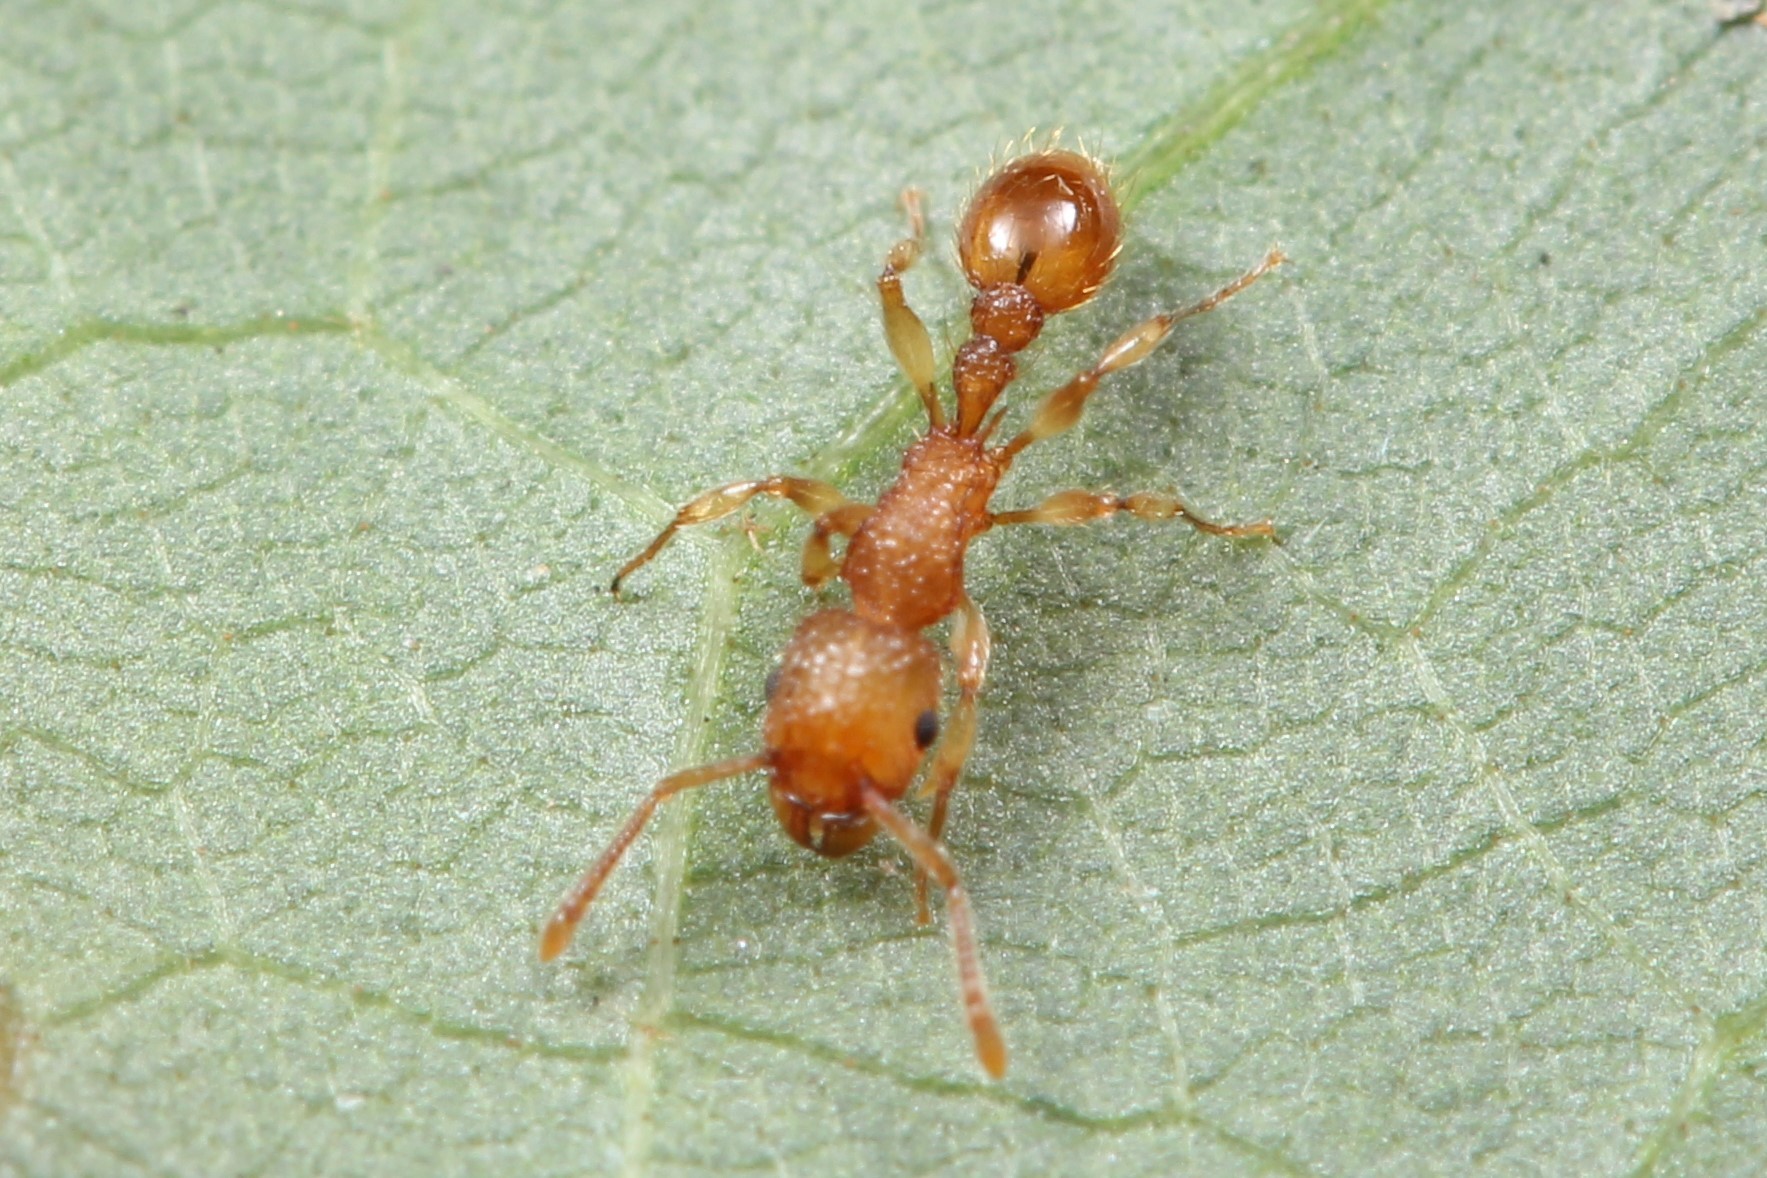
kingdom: Animalia
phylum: Arthropoda
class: Insecta
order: Hymenoptera
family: Formicidae
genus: Tetramorium
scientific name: Tetramorium nipponense
